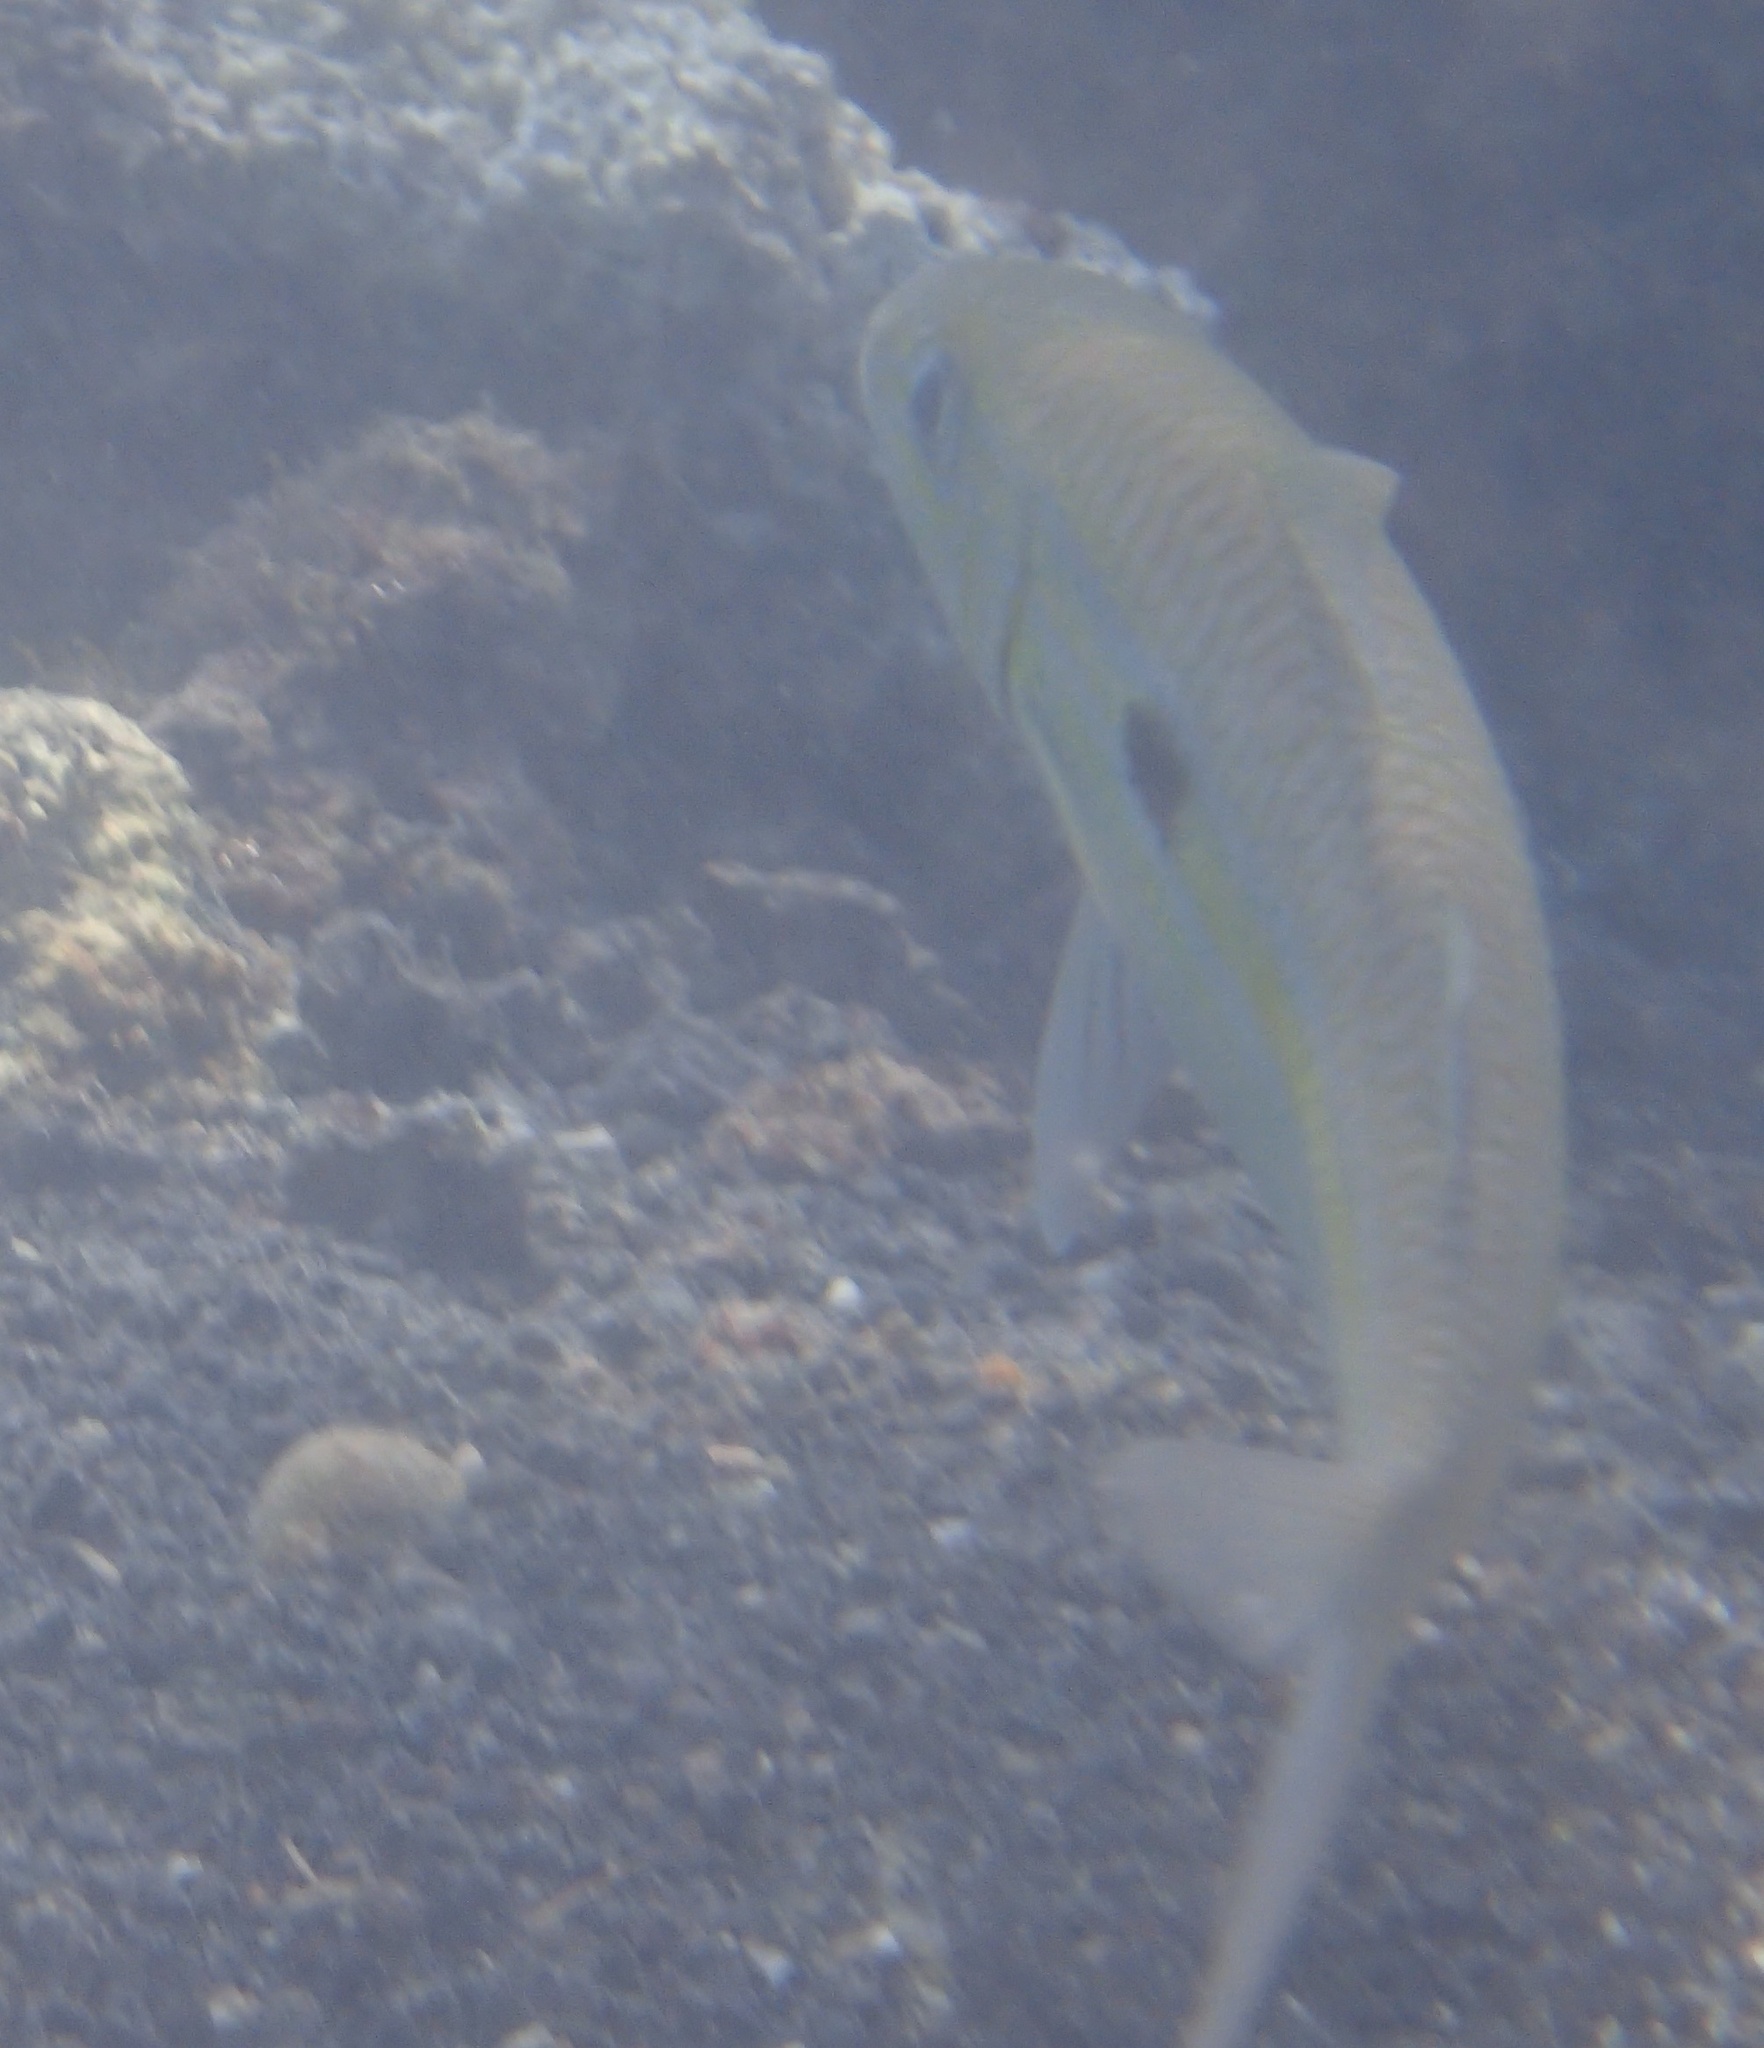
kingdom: Animalia
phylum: Chordata
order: Perciformes
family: Mullidae
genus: Mulloidichthys
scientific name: Mulloidichthys flavolineatus
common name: Yellowstripe goatfish
